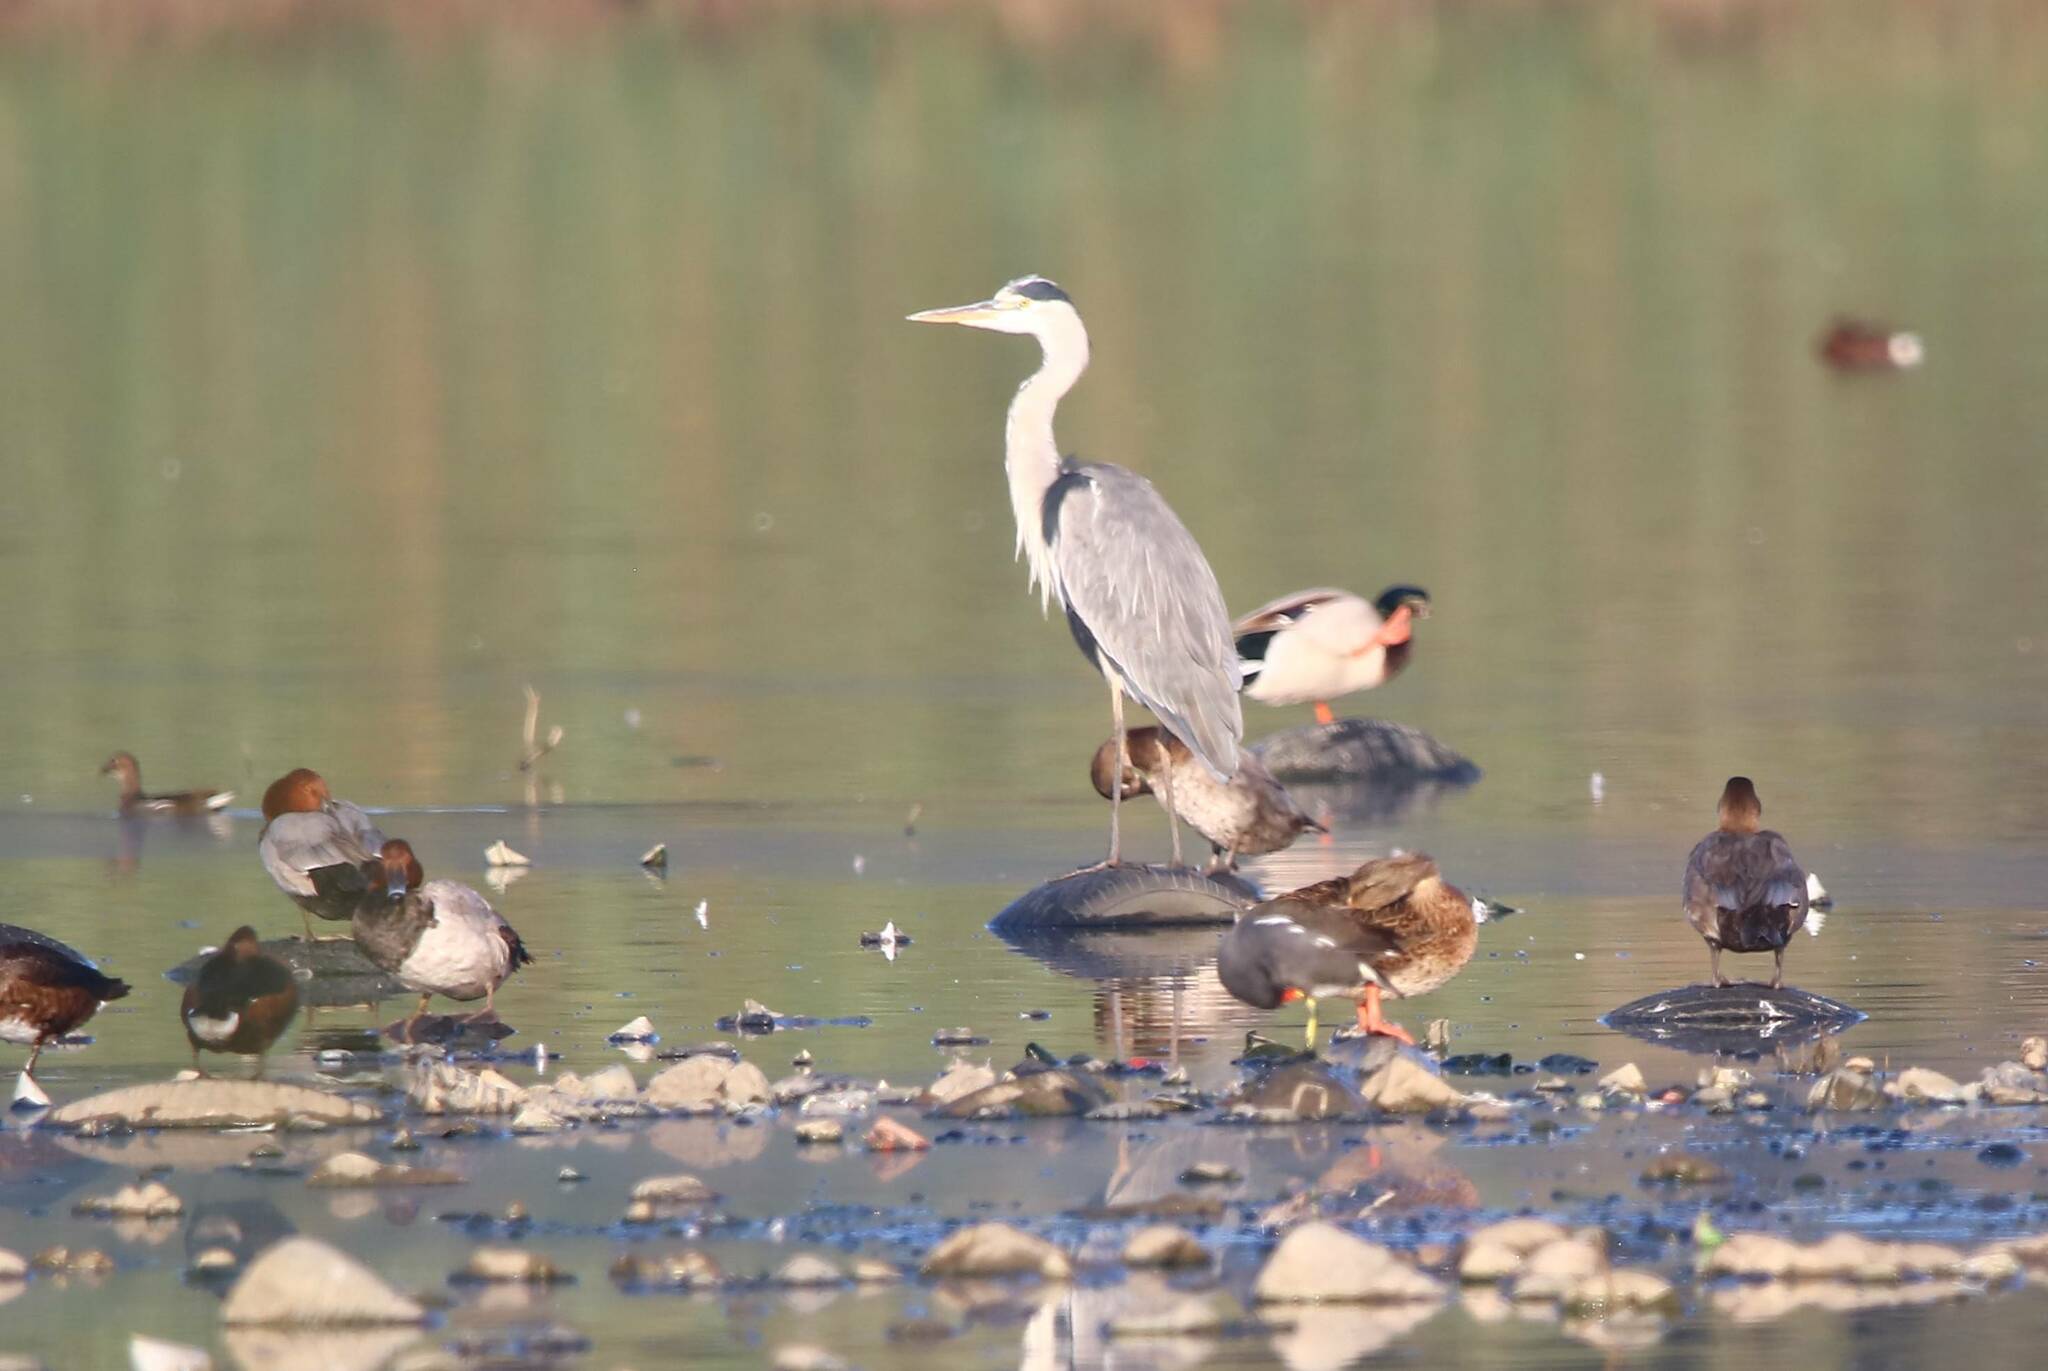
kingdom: Animalia
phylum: Chordata
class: Aves
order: Pelecaniformes
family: Ardeidae
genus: Ardea
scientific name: Ardea cinerea
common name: Grey heron
